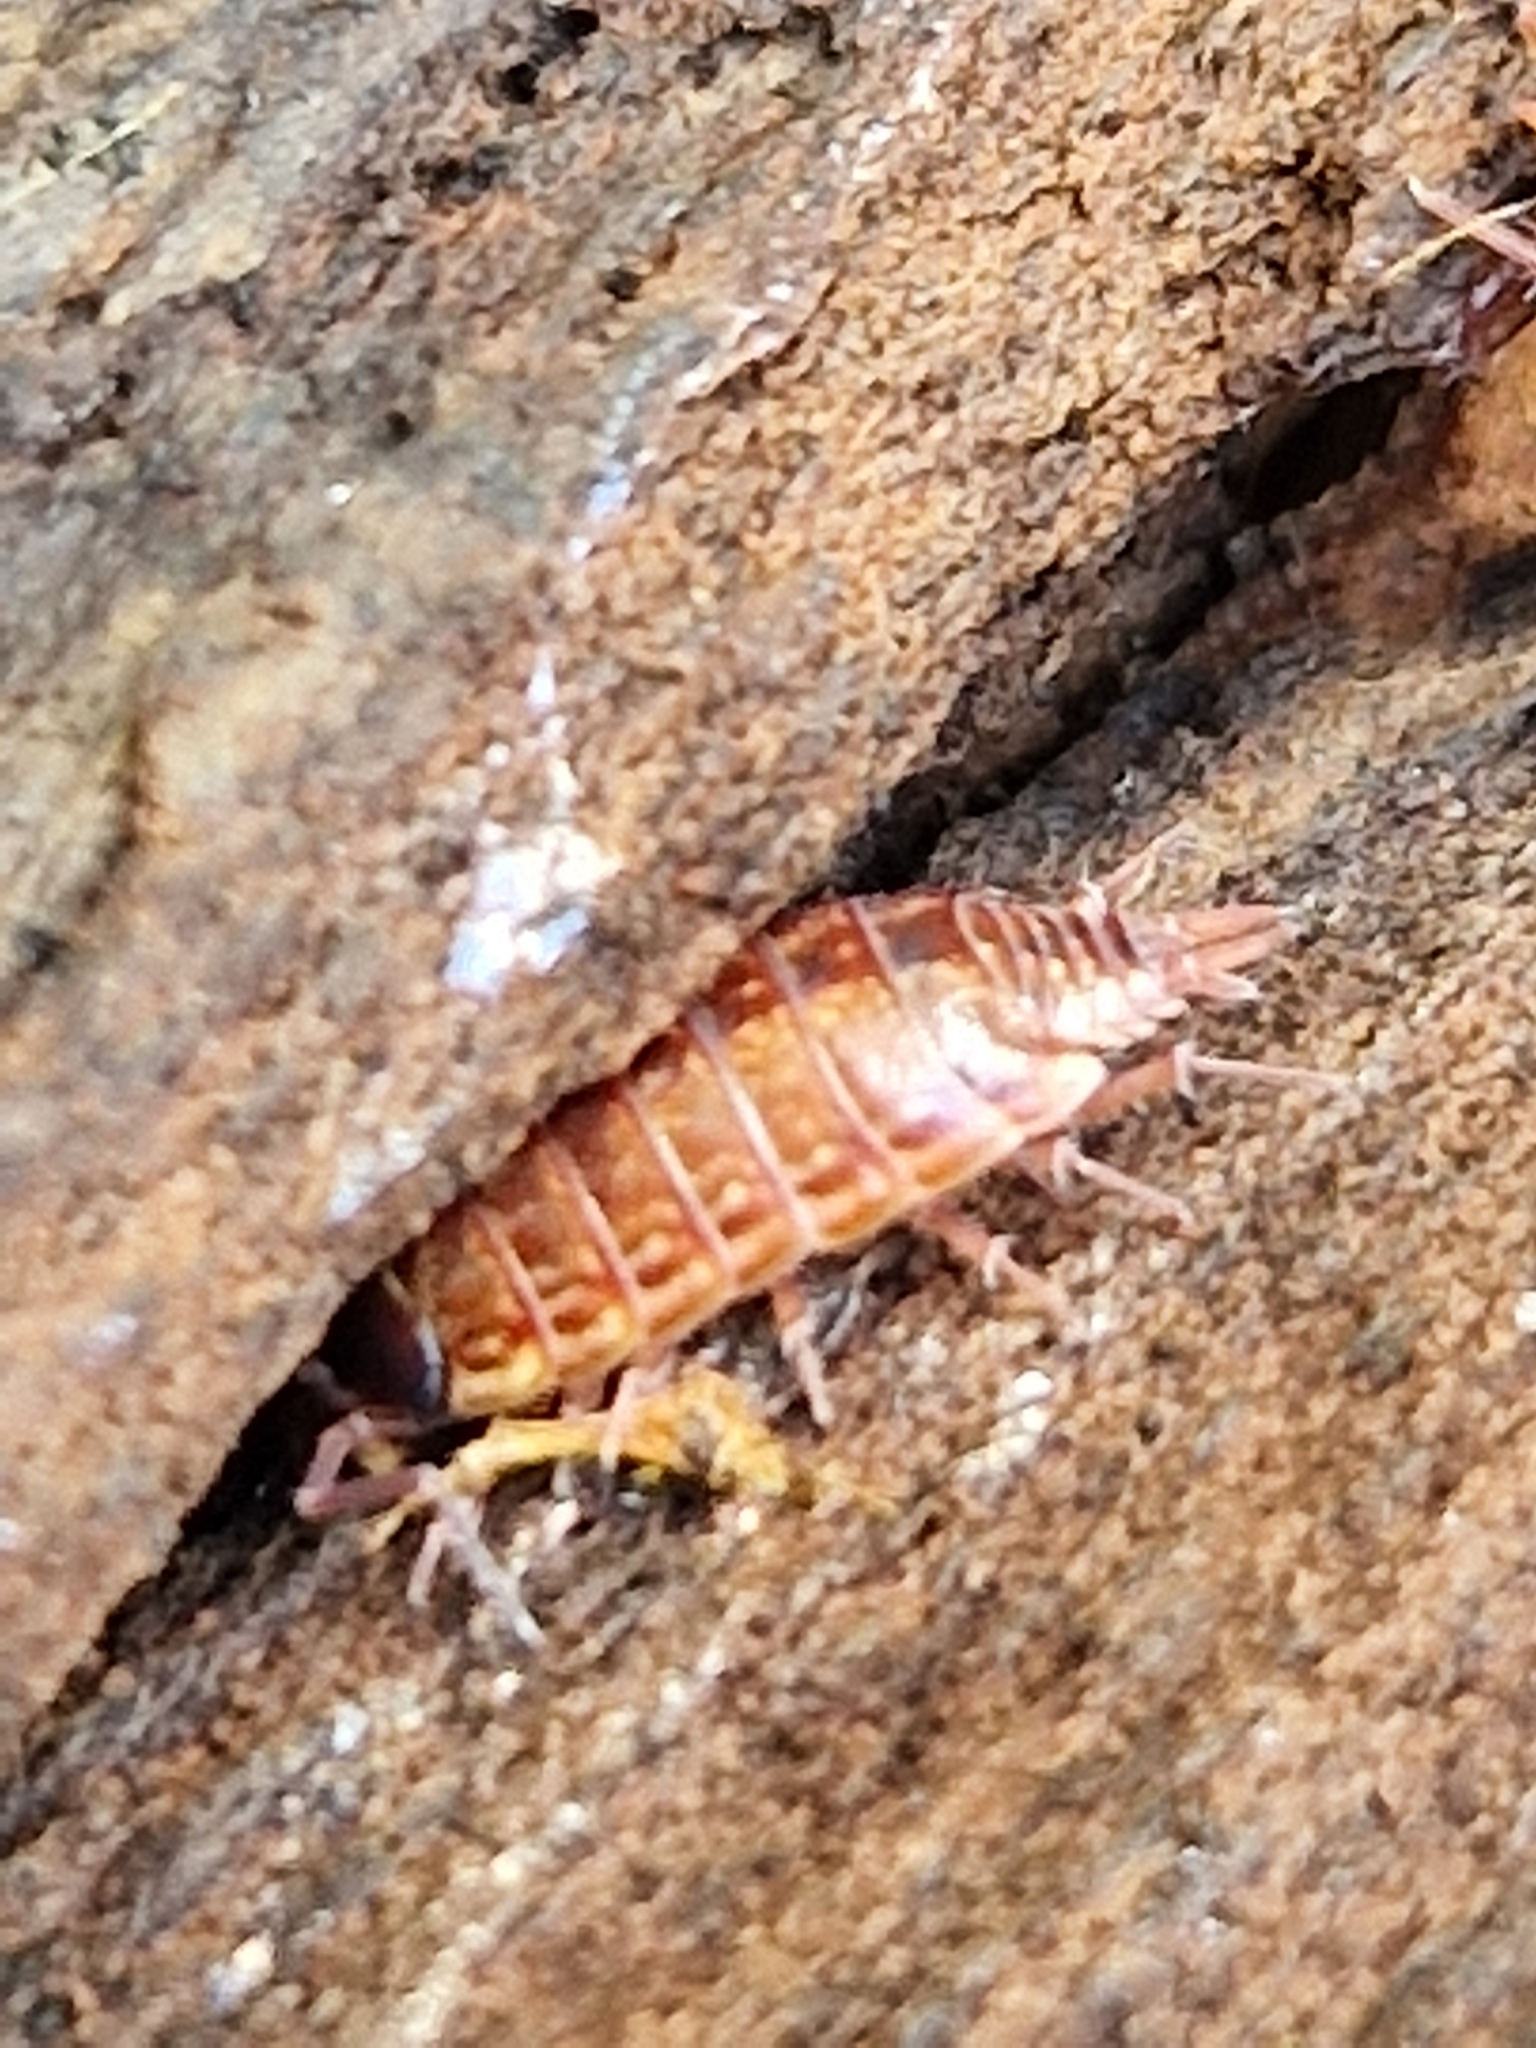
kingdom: Animalia
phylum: Arthropoda
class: Malacostraca
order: Isopoda
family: Philosciidae
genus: Philoscia
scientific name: Philoscia muscorum
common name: Common striped woodlouse
